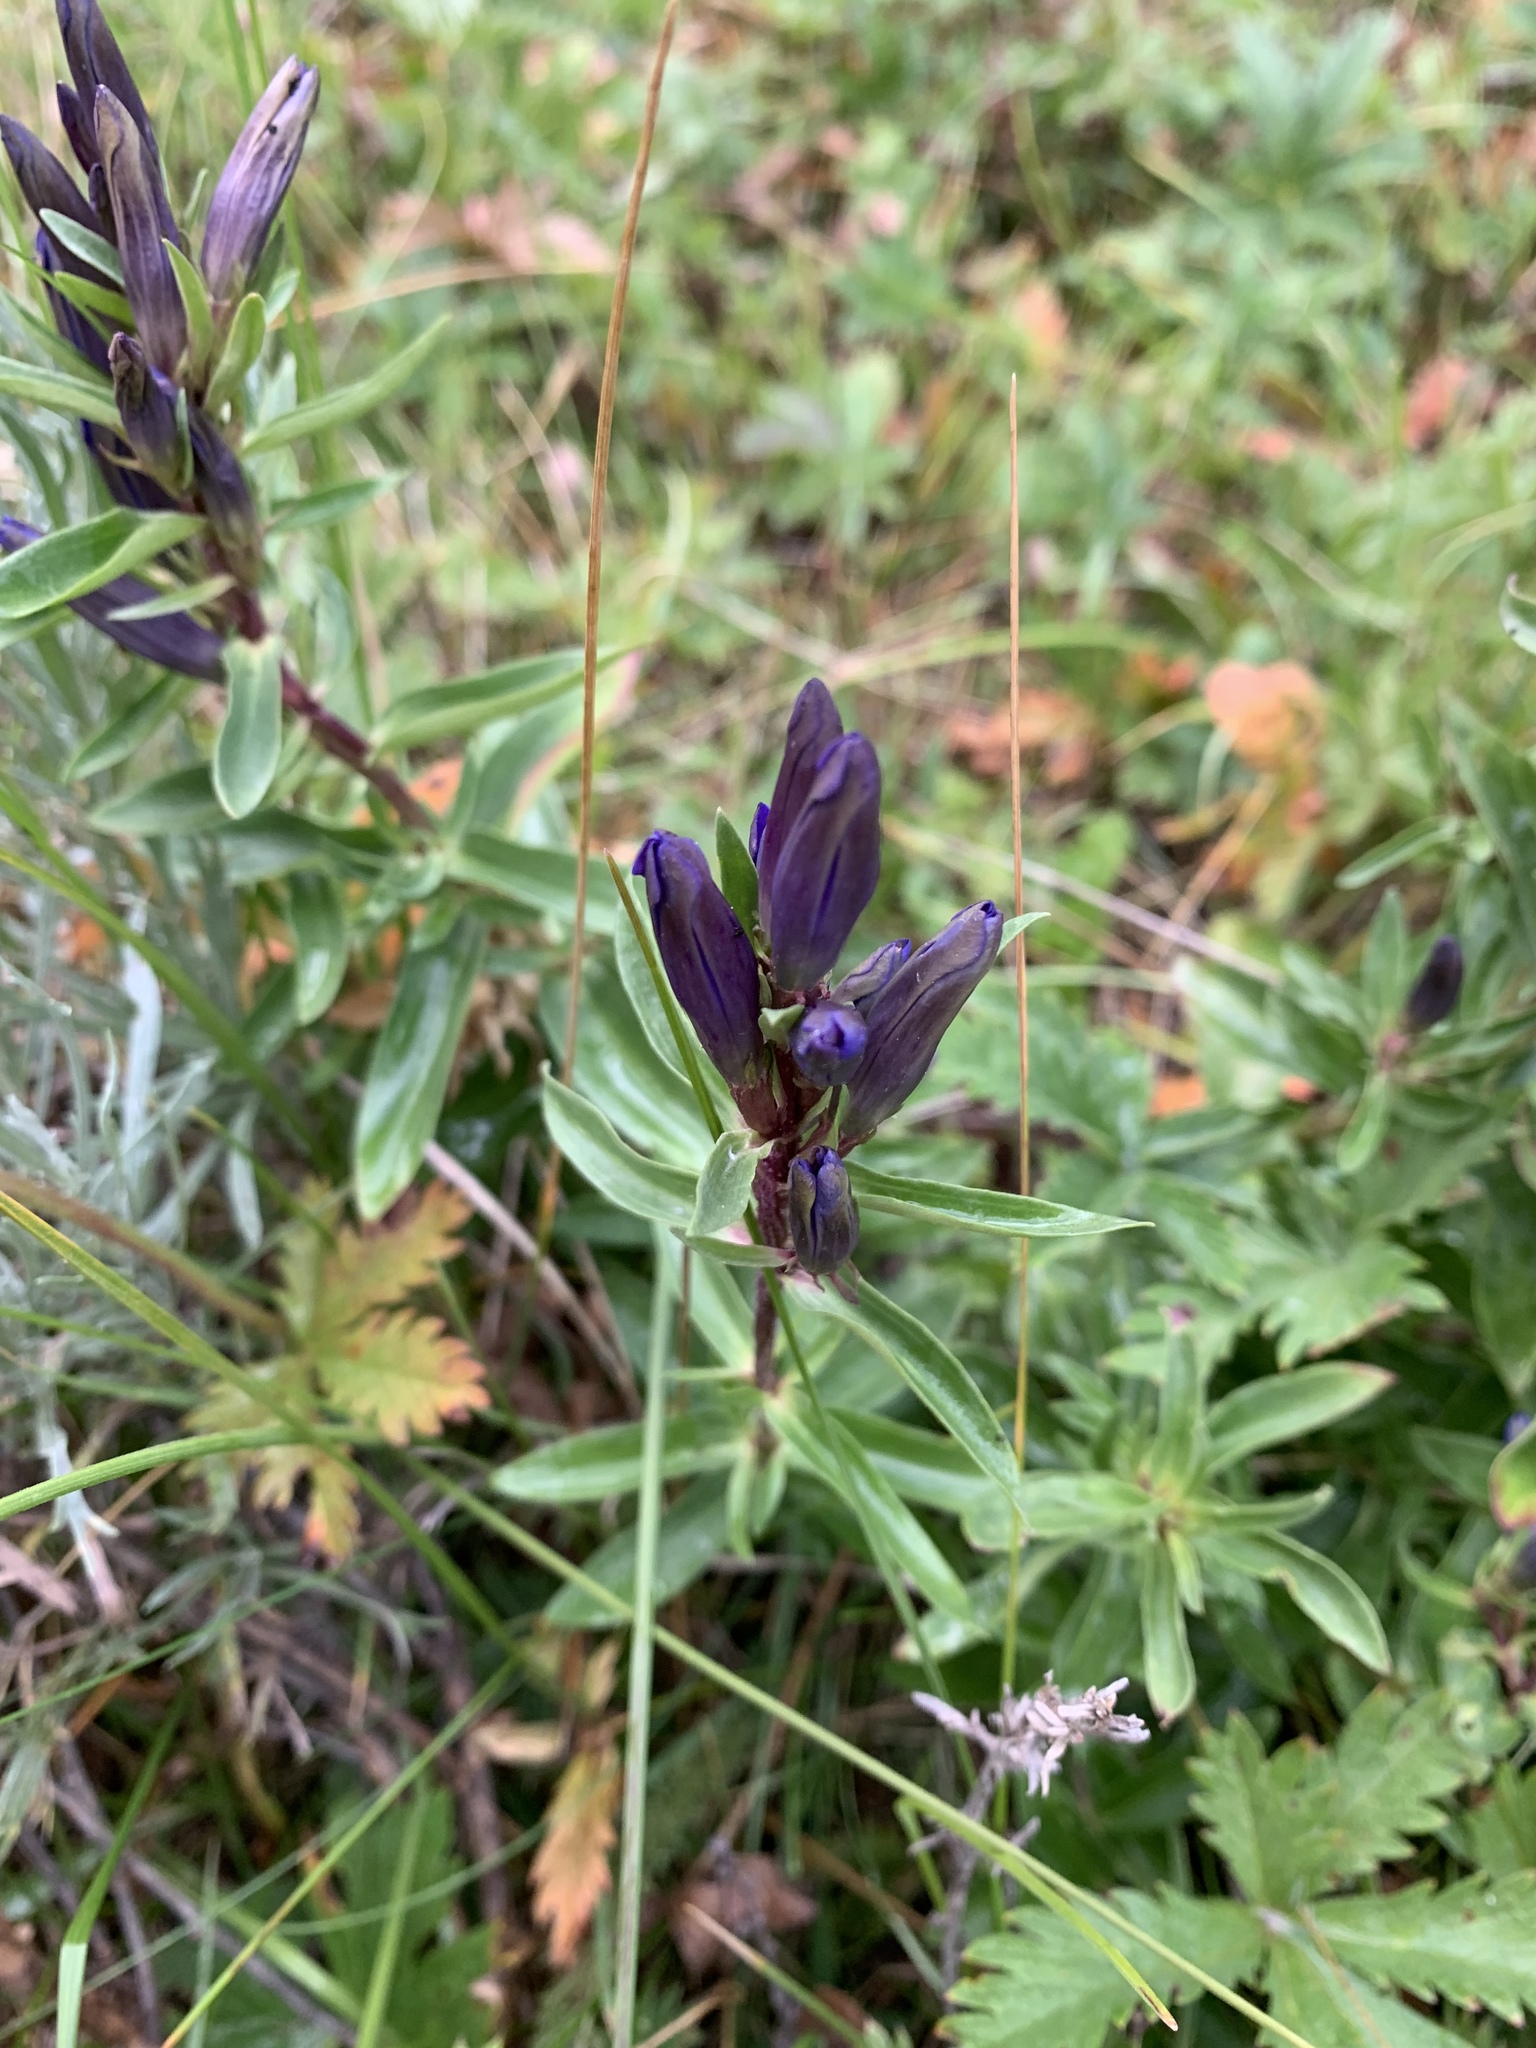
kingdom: Plantae
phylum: Tracheophyta
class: Magnoliopsida
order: Gentianales
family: Gentianaceae
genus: Gentiana
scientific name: Gentiana affinis
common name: Rocky mountain gentian
